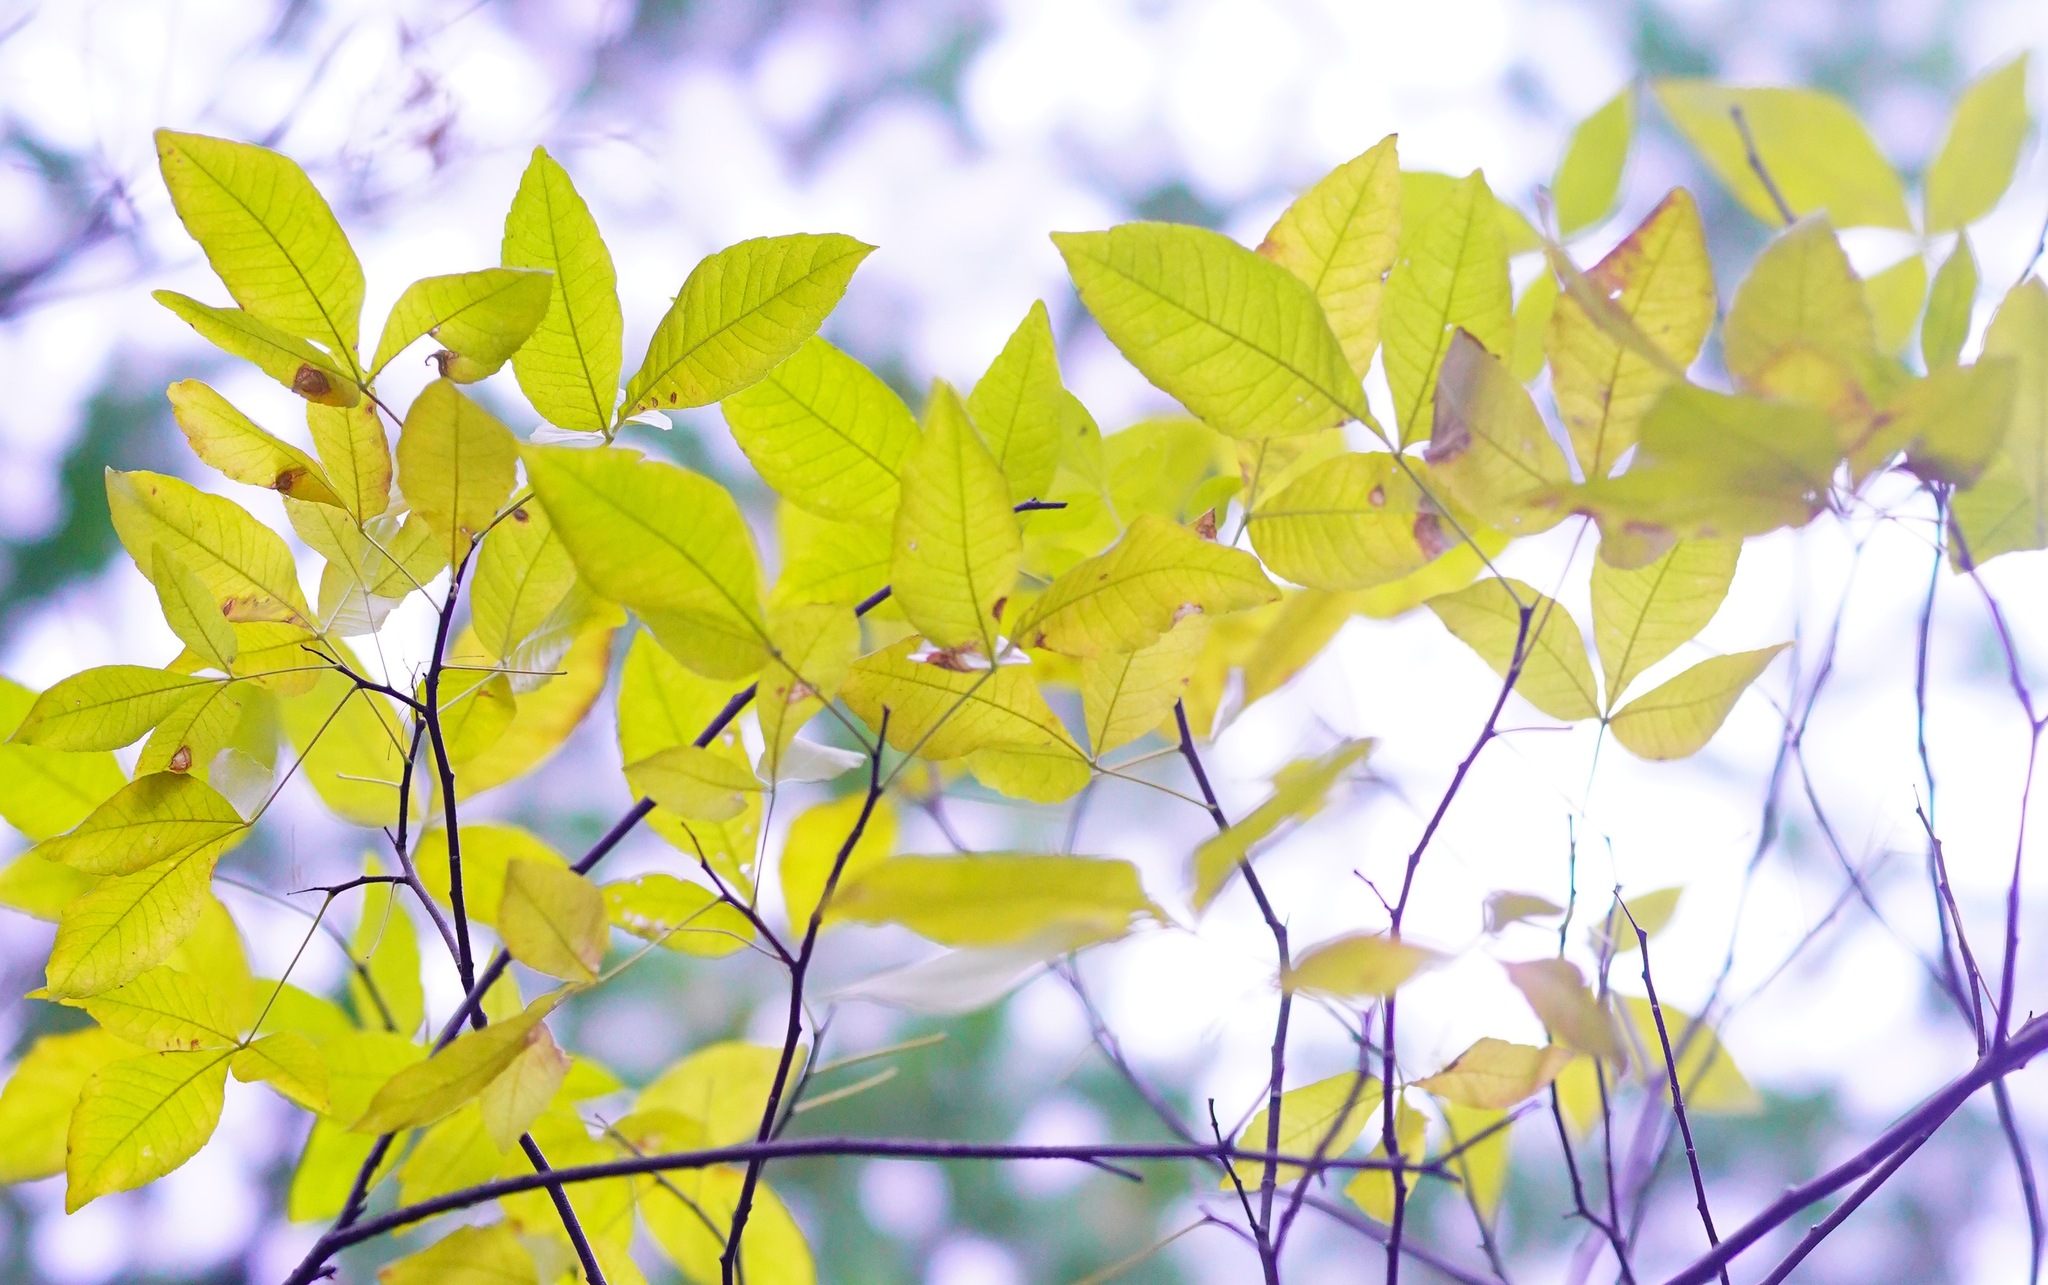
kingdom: Plantae
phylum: Tracheophyta
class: Magnoliopsida
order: Sapindales
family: Rutaceae
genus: Ptelea
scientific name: Ptelea crenulata
